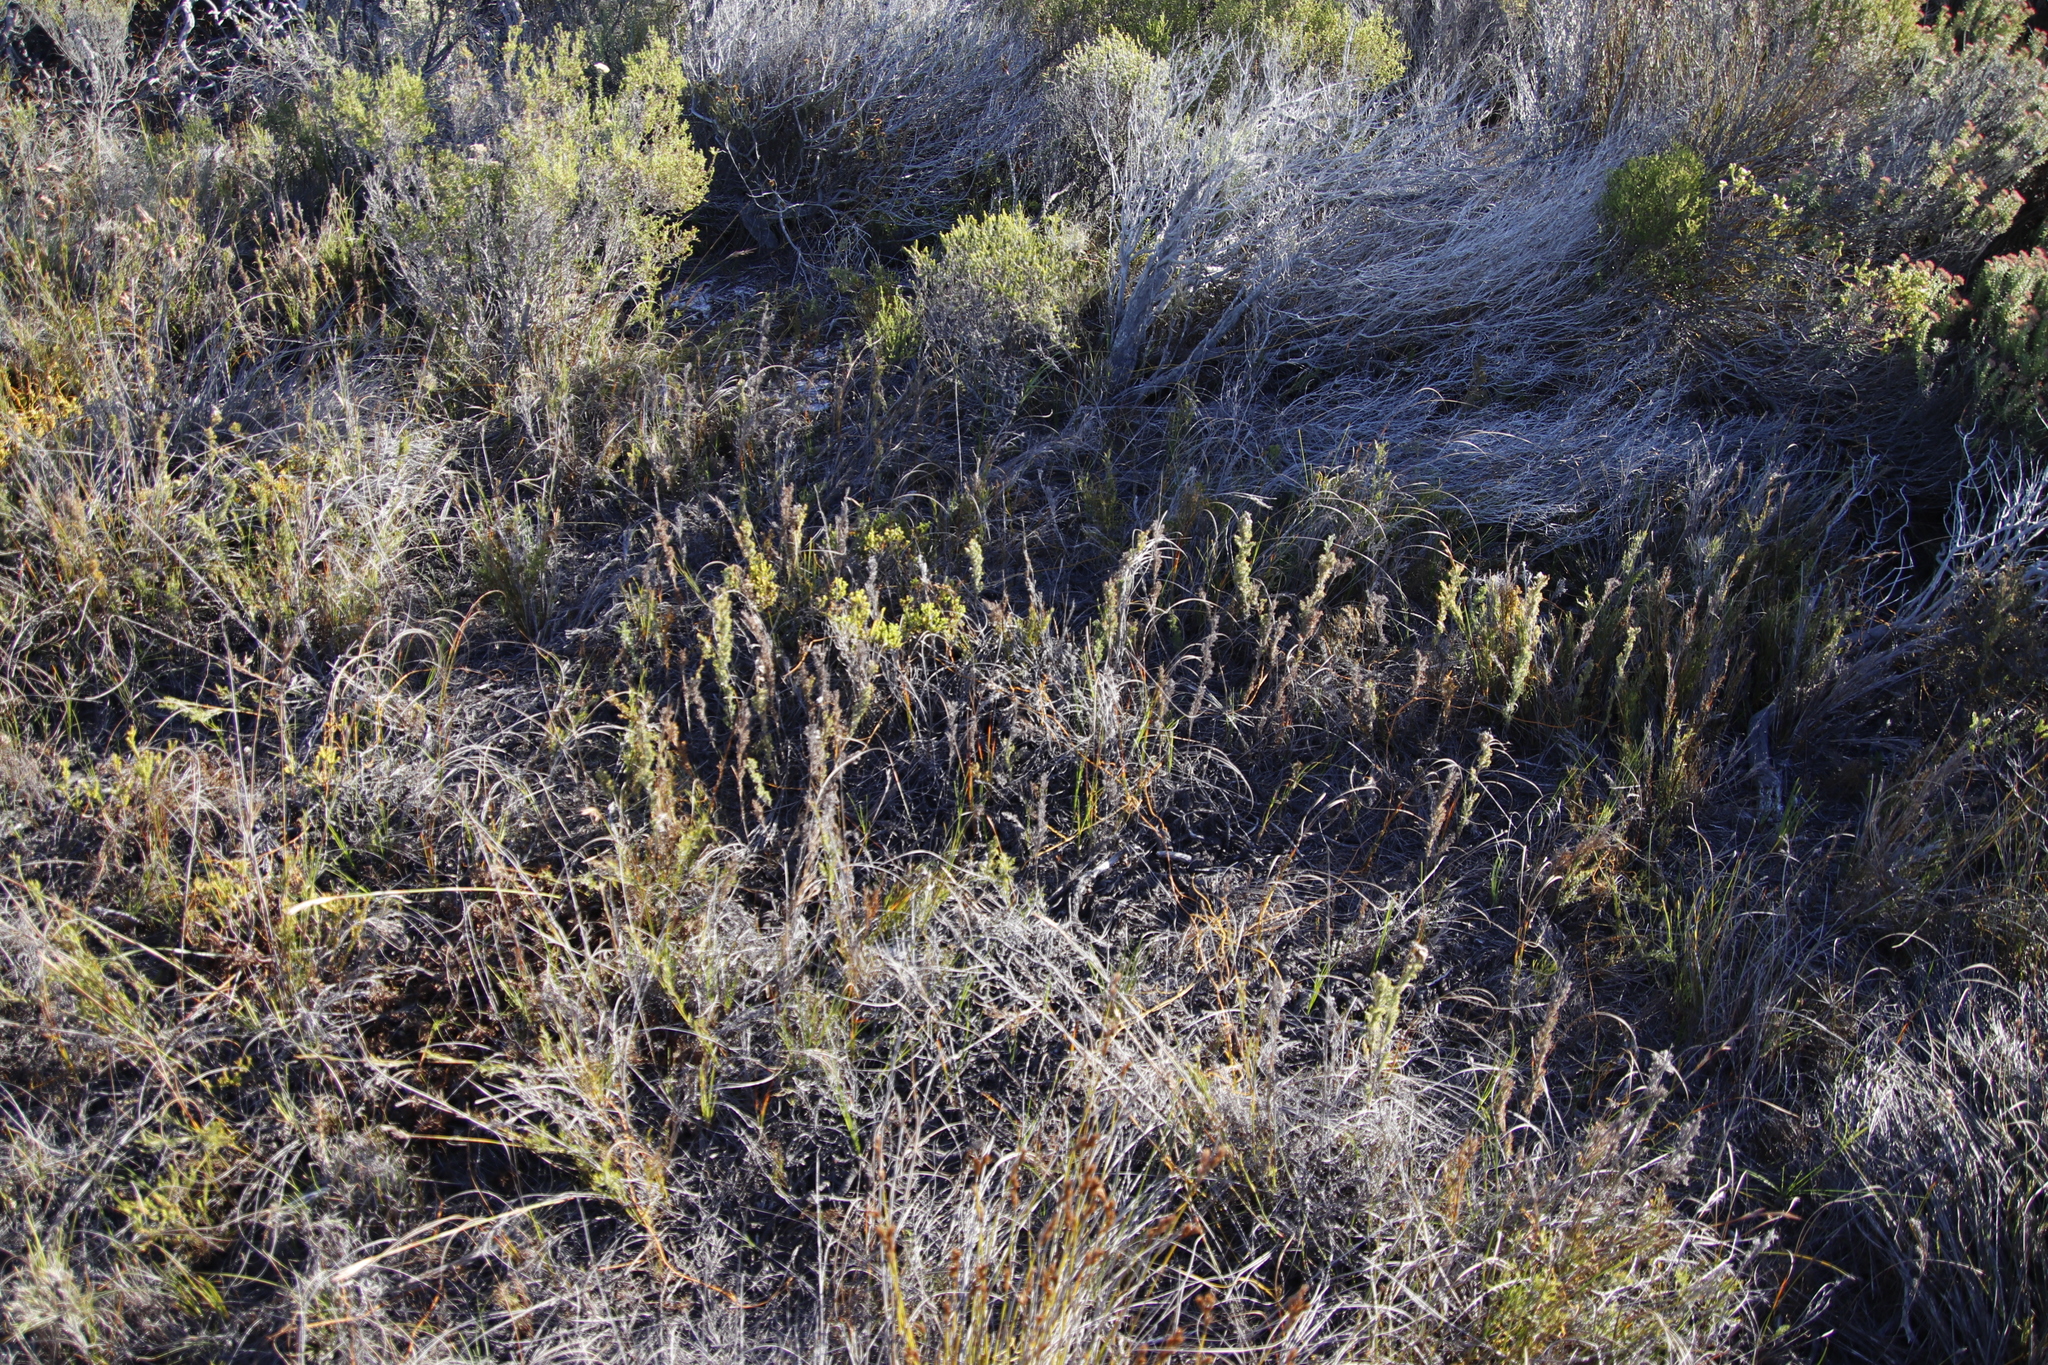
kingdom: Plantae
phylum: Tracheophyta
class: Liliopsida
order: Poales
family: Restionaceae
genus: Thamnochortus
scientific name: Thamnochortus fruticosus
